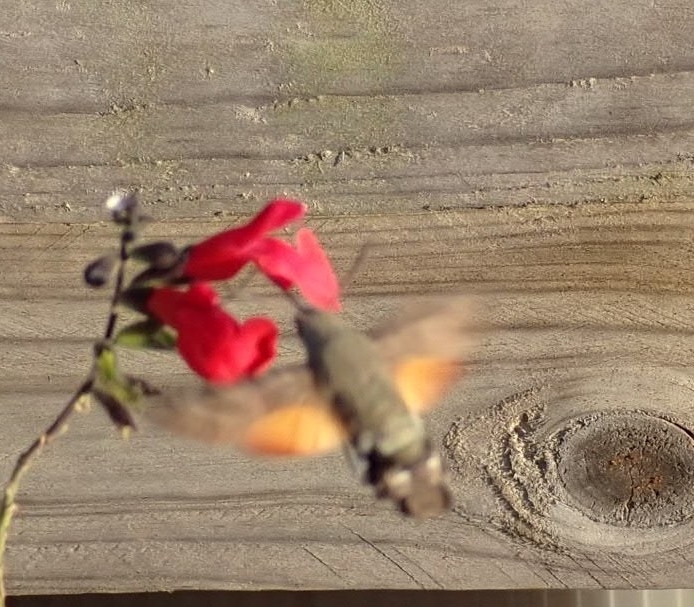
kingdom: Animalia
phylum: Arthropoda
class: Insecta
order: Lepidoptera
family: Sphingidae
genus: Macroglossum
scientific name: Macroglossum stellatarum
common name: Humming-bird hawk-moth
